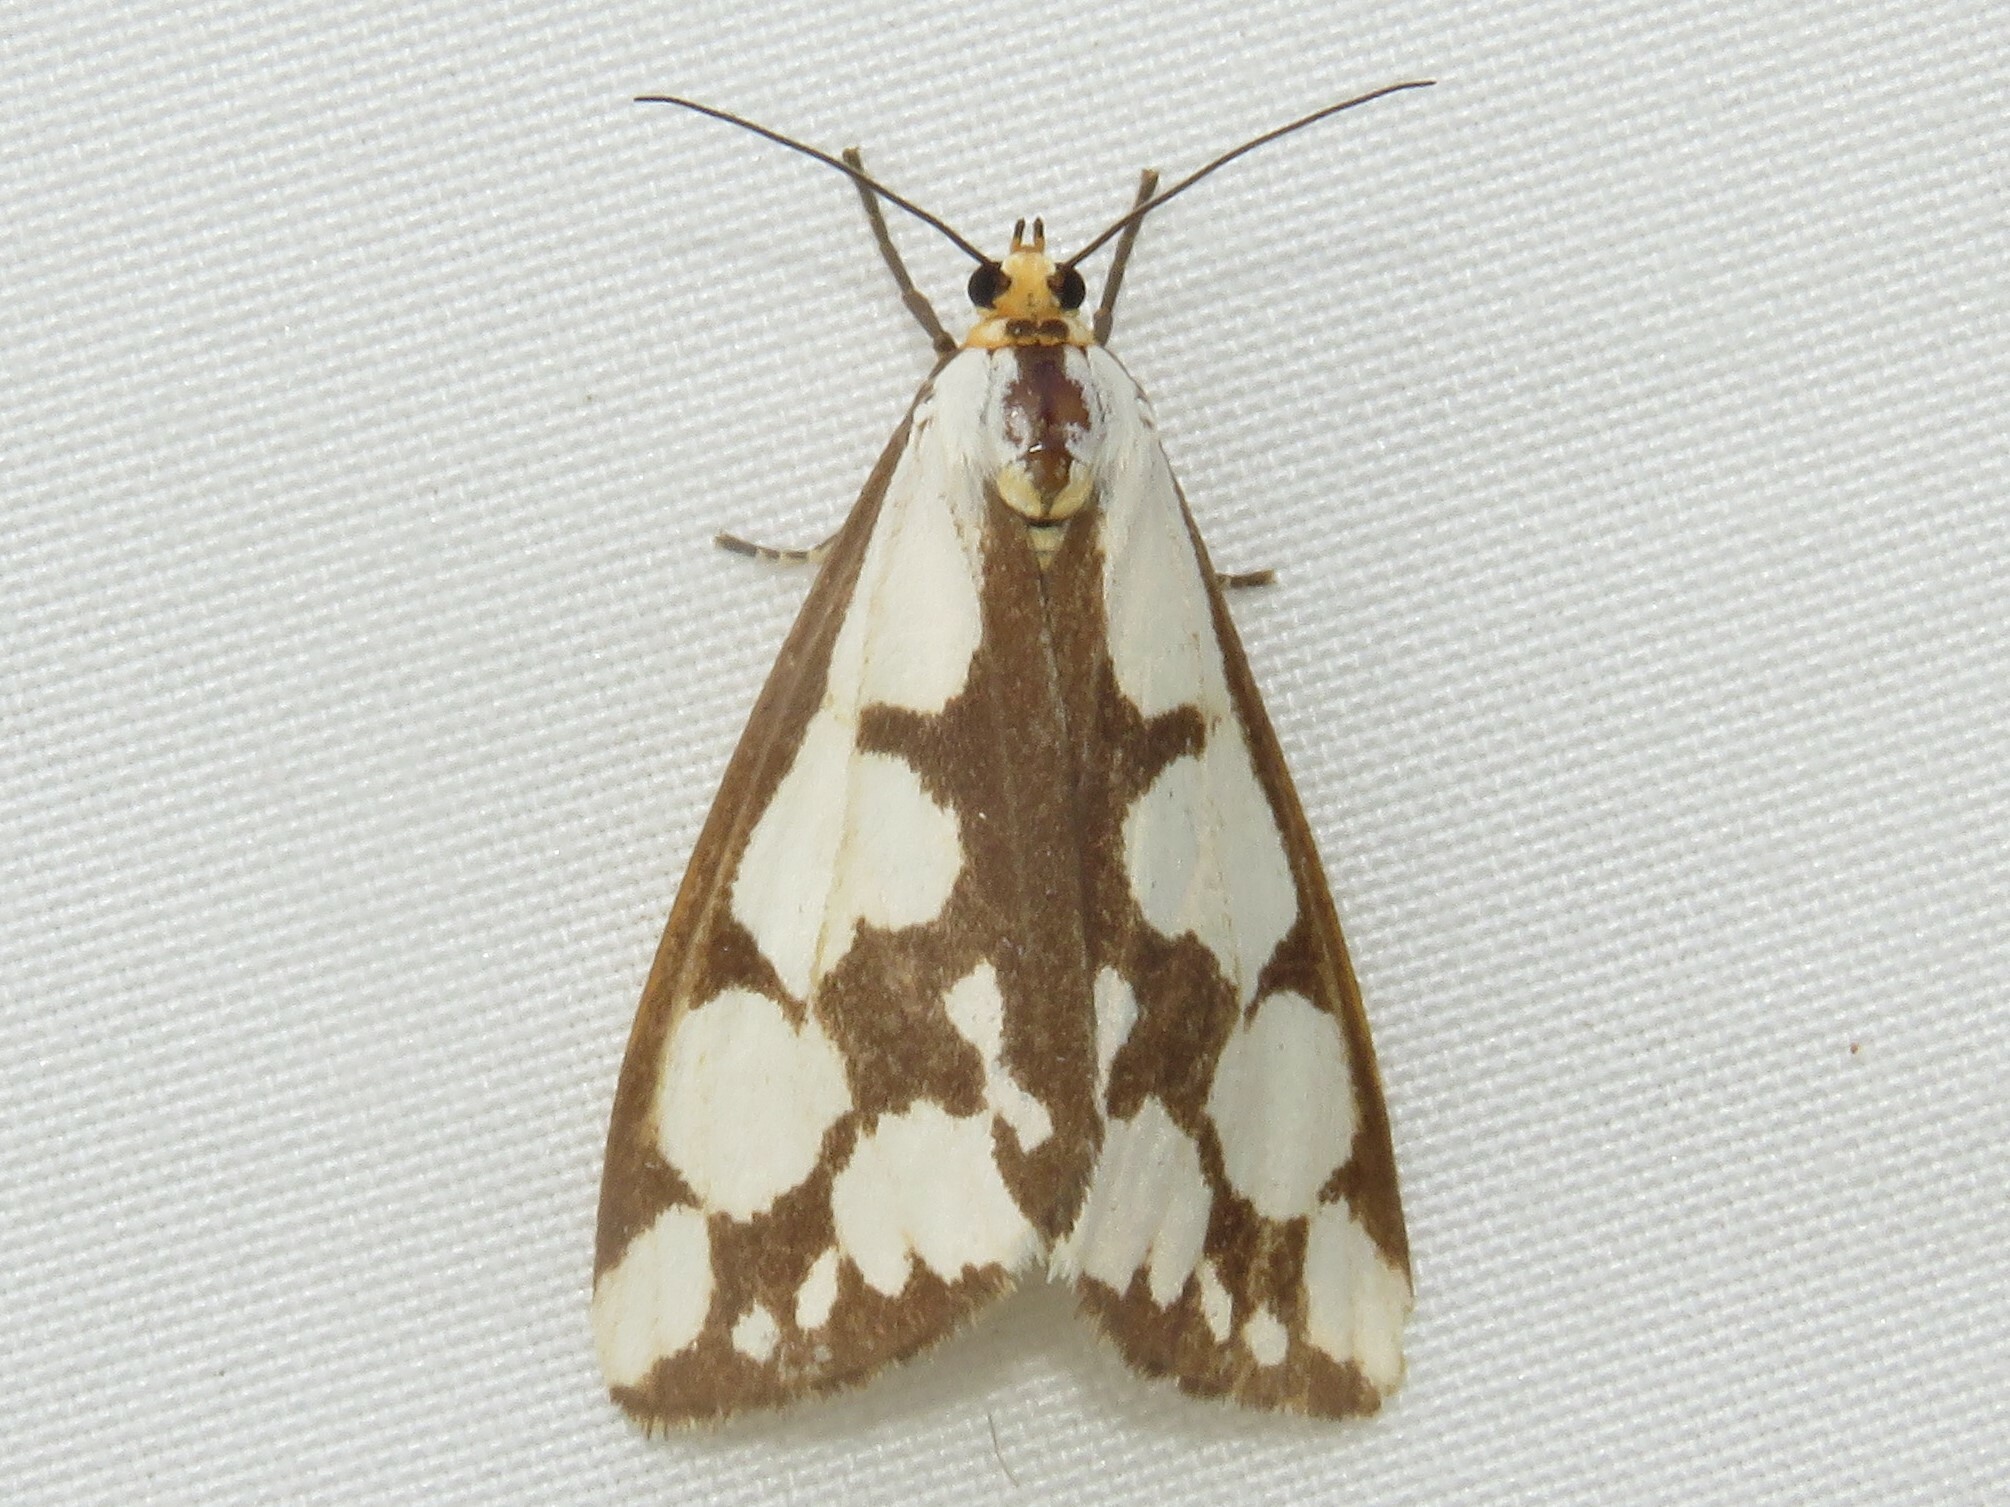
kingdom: Animalia
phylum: Arthropoda
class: Insecta
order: Lepidoptera
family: Erebidae
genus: Haploa
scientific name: Haploa confusa
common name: Confused haploa moth
